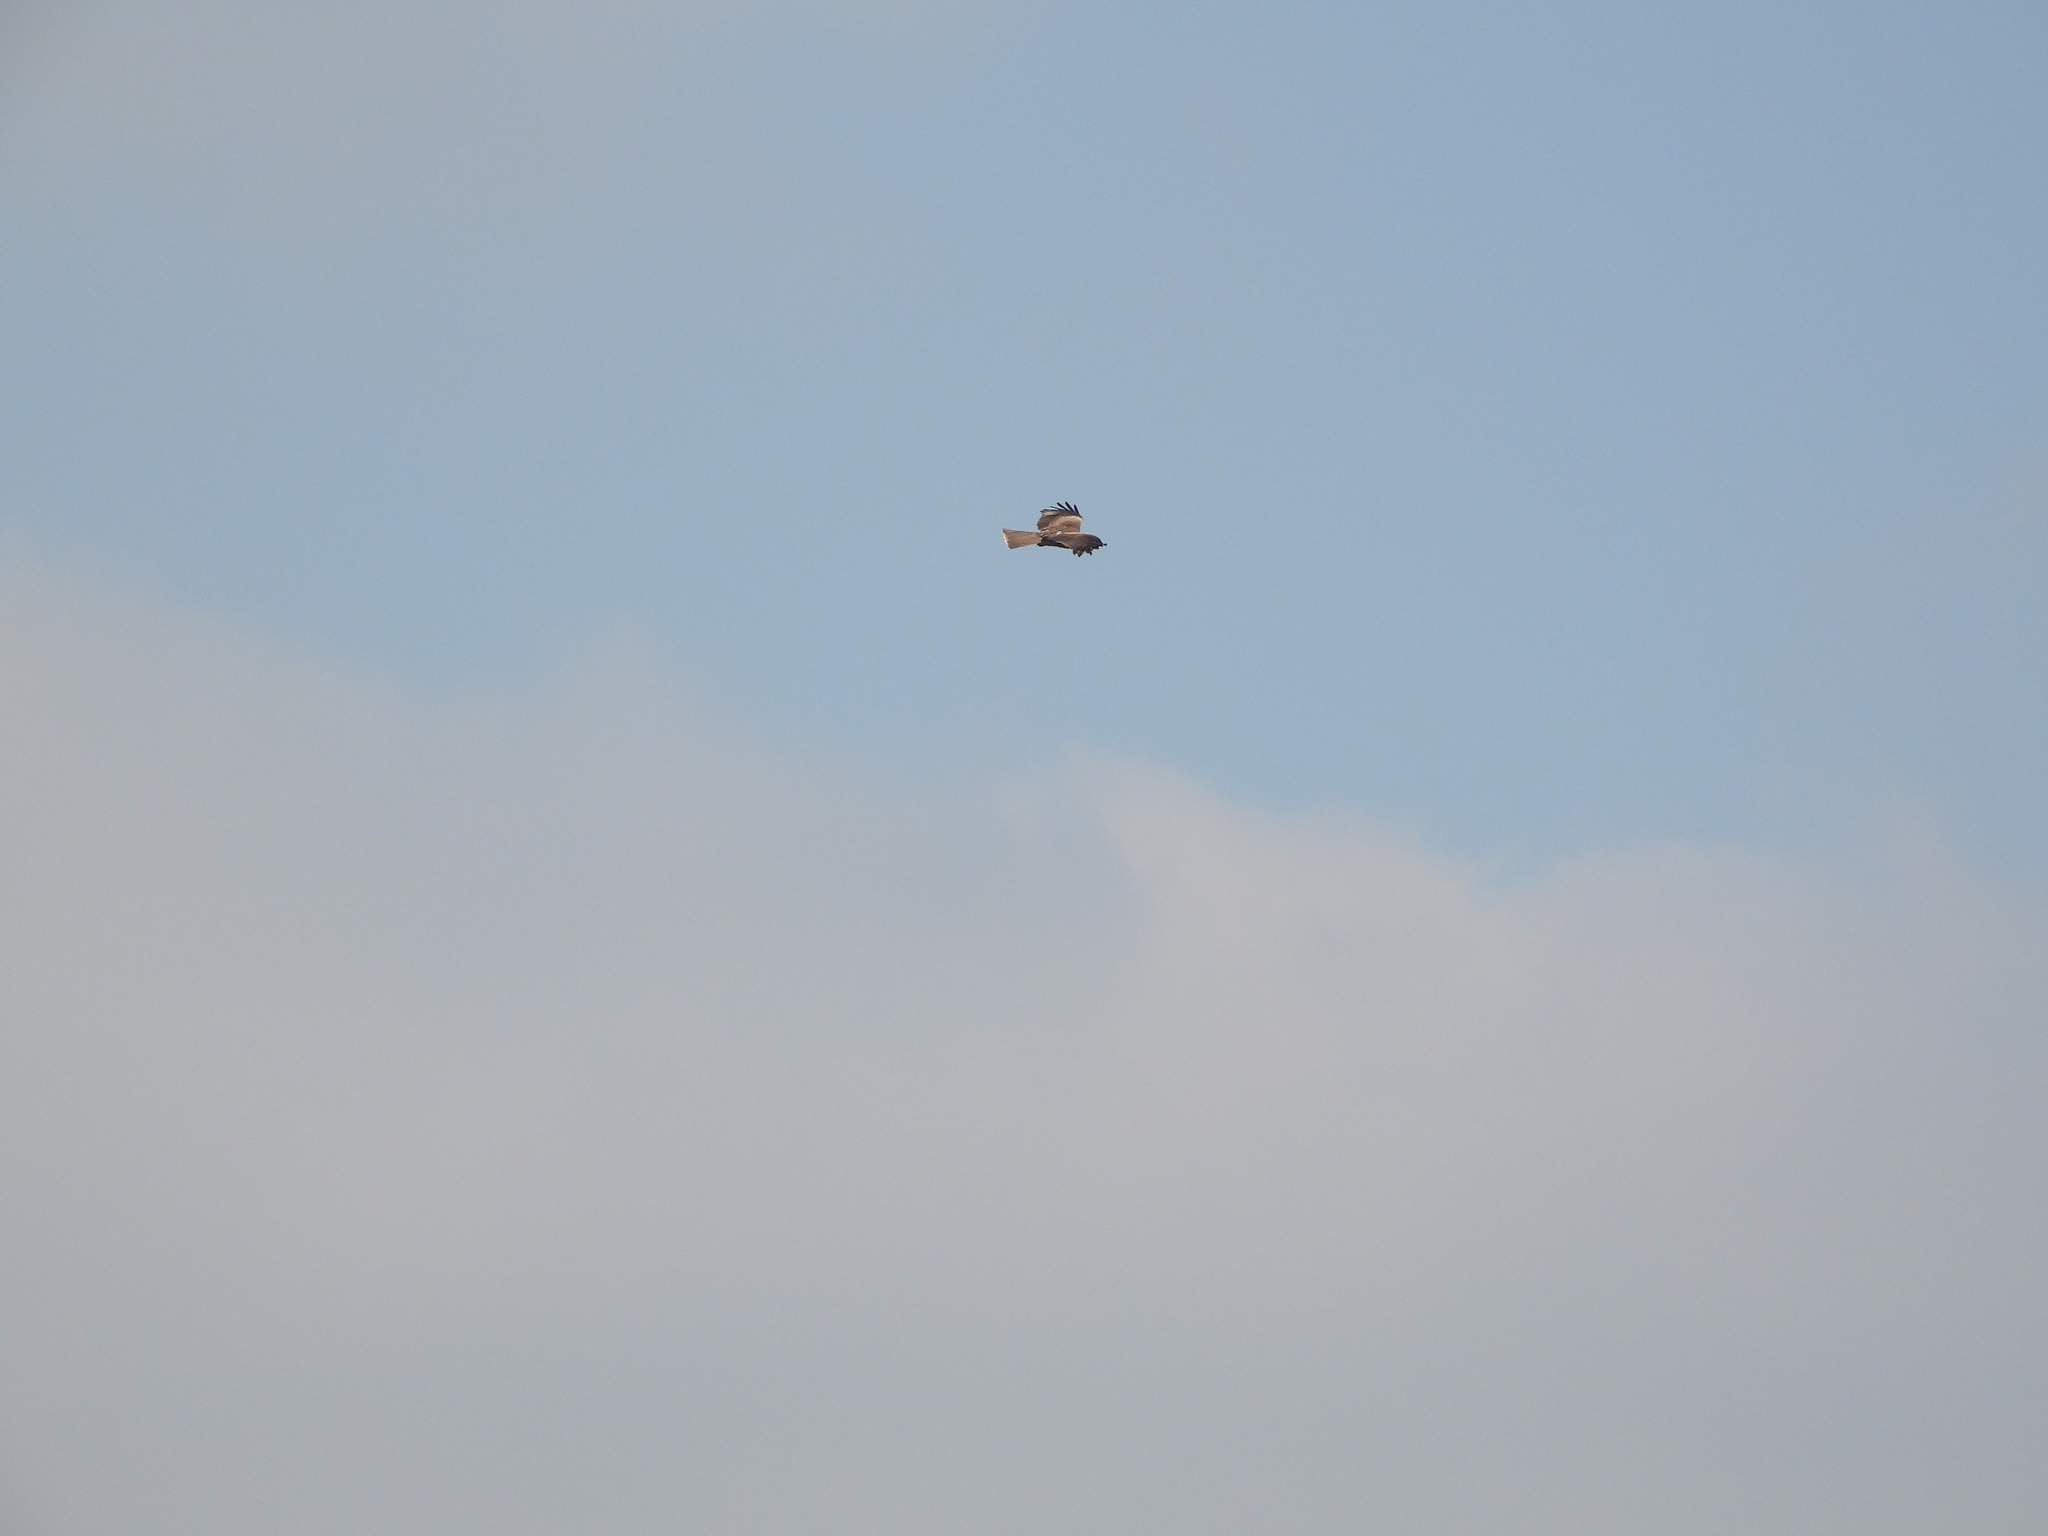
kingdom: Animalia
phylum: Chordata
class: Aves
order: Accipitriformes
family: Accipitridae
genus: Milvus
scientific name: Milvus migrans
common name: Black kite
